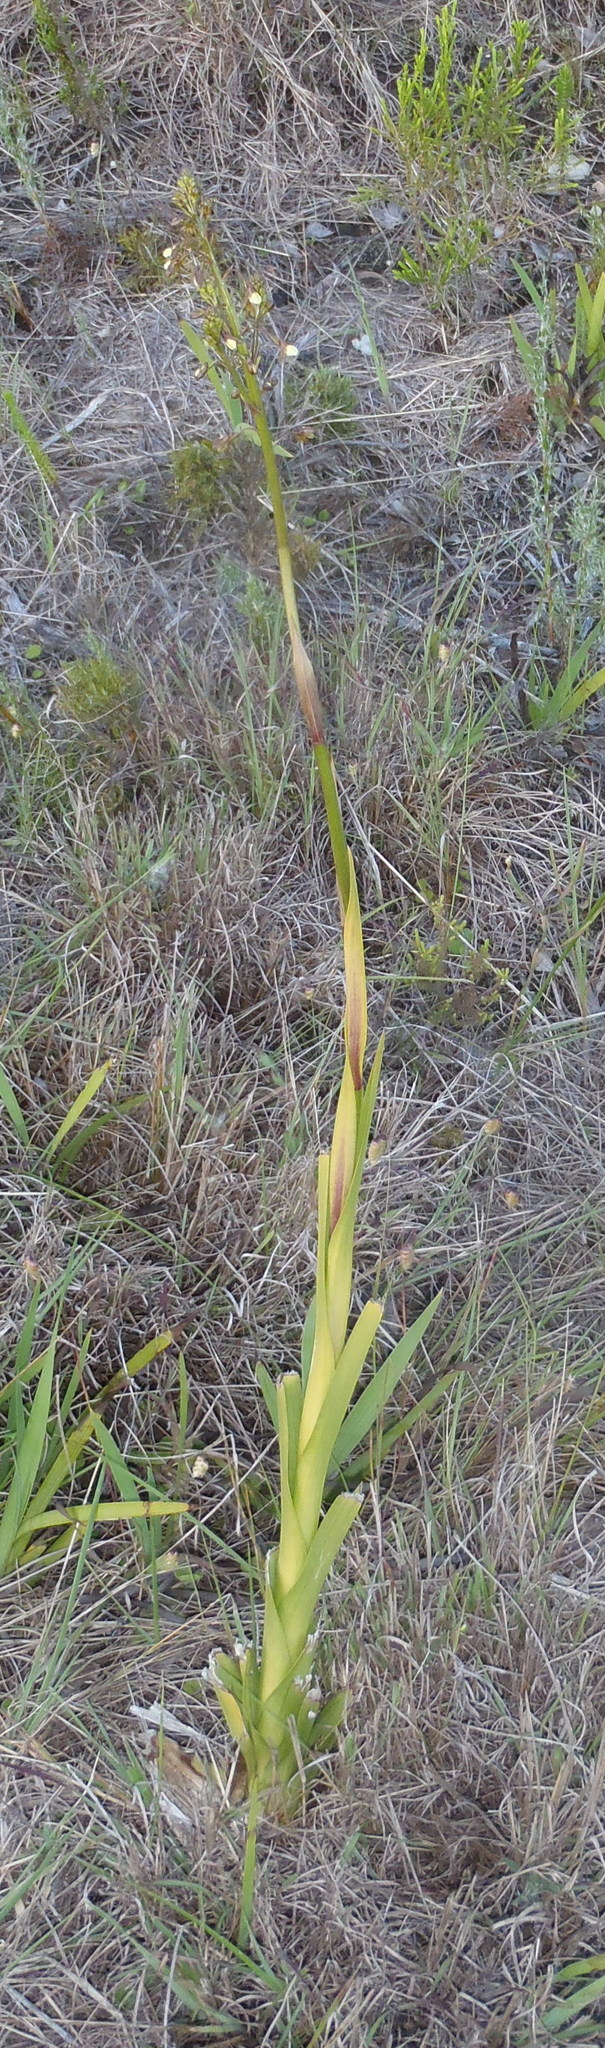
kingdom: Plantae
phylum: Tracheophyta
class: Liliopsida
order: Asparagales
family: Orchidaceae
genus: Eulophia
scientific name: Eulophia cochlearis
